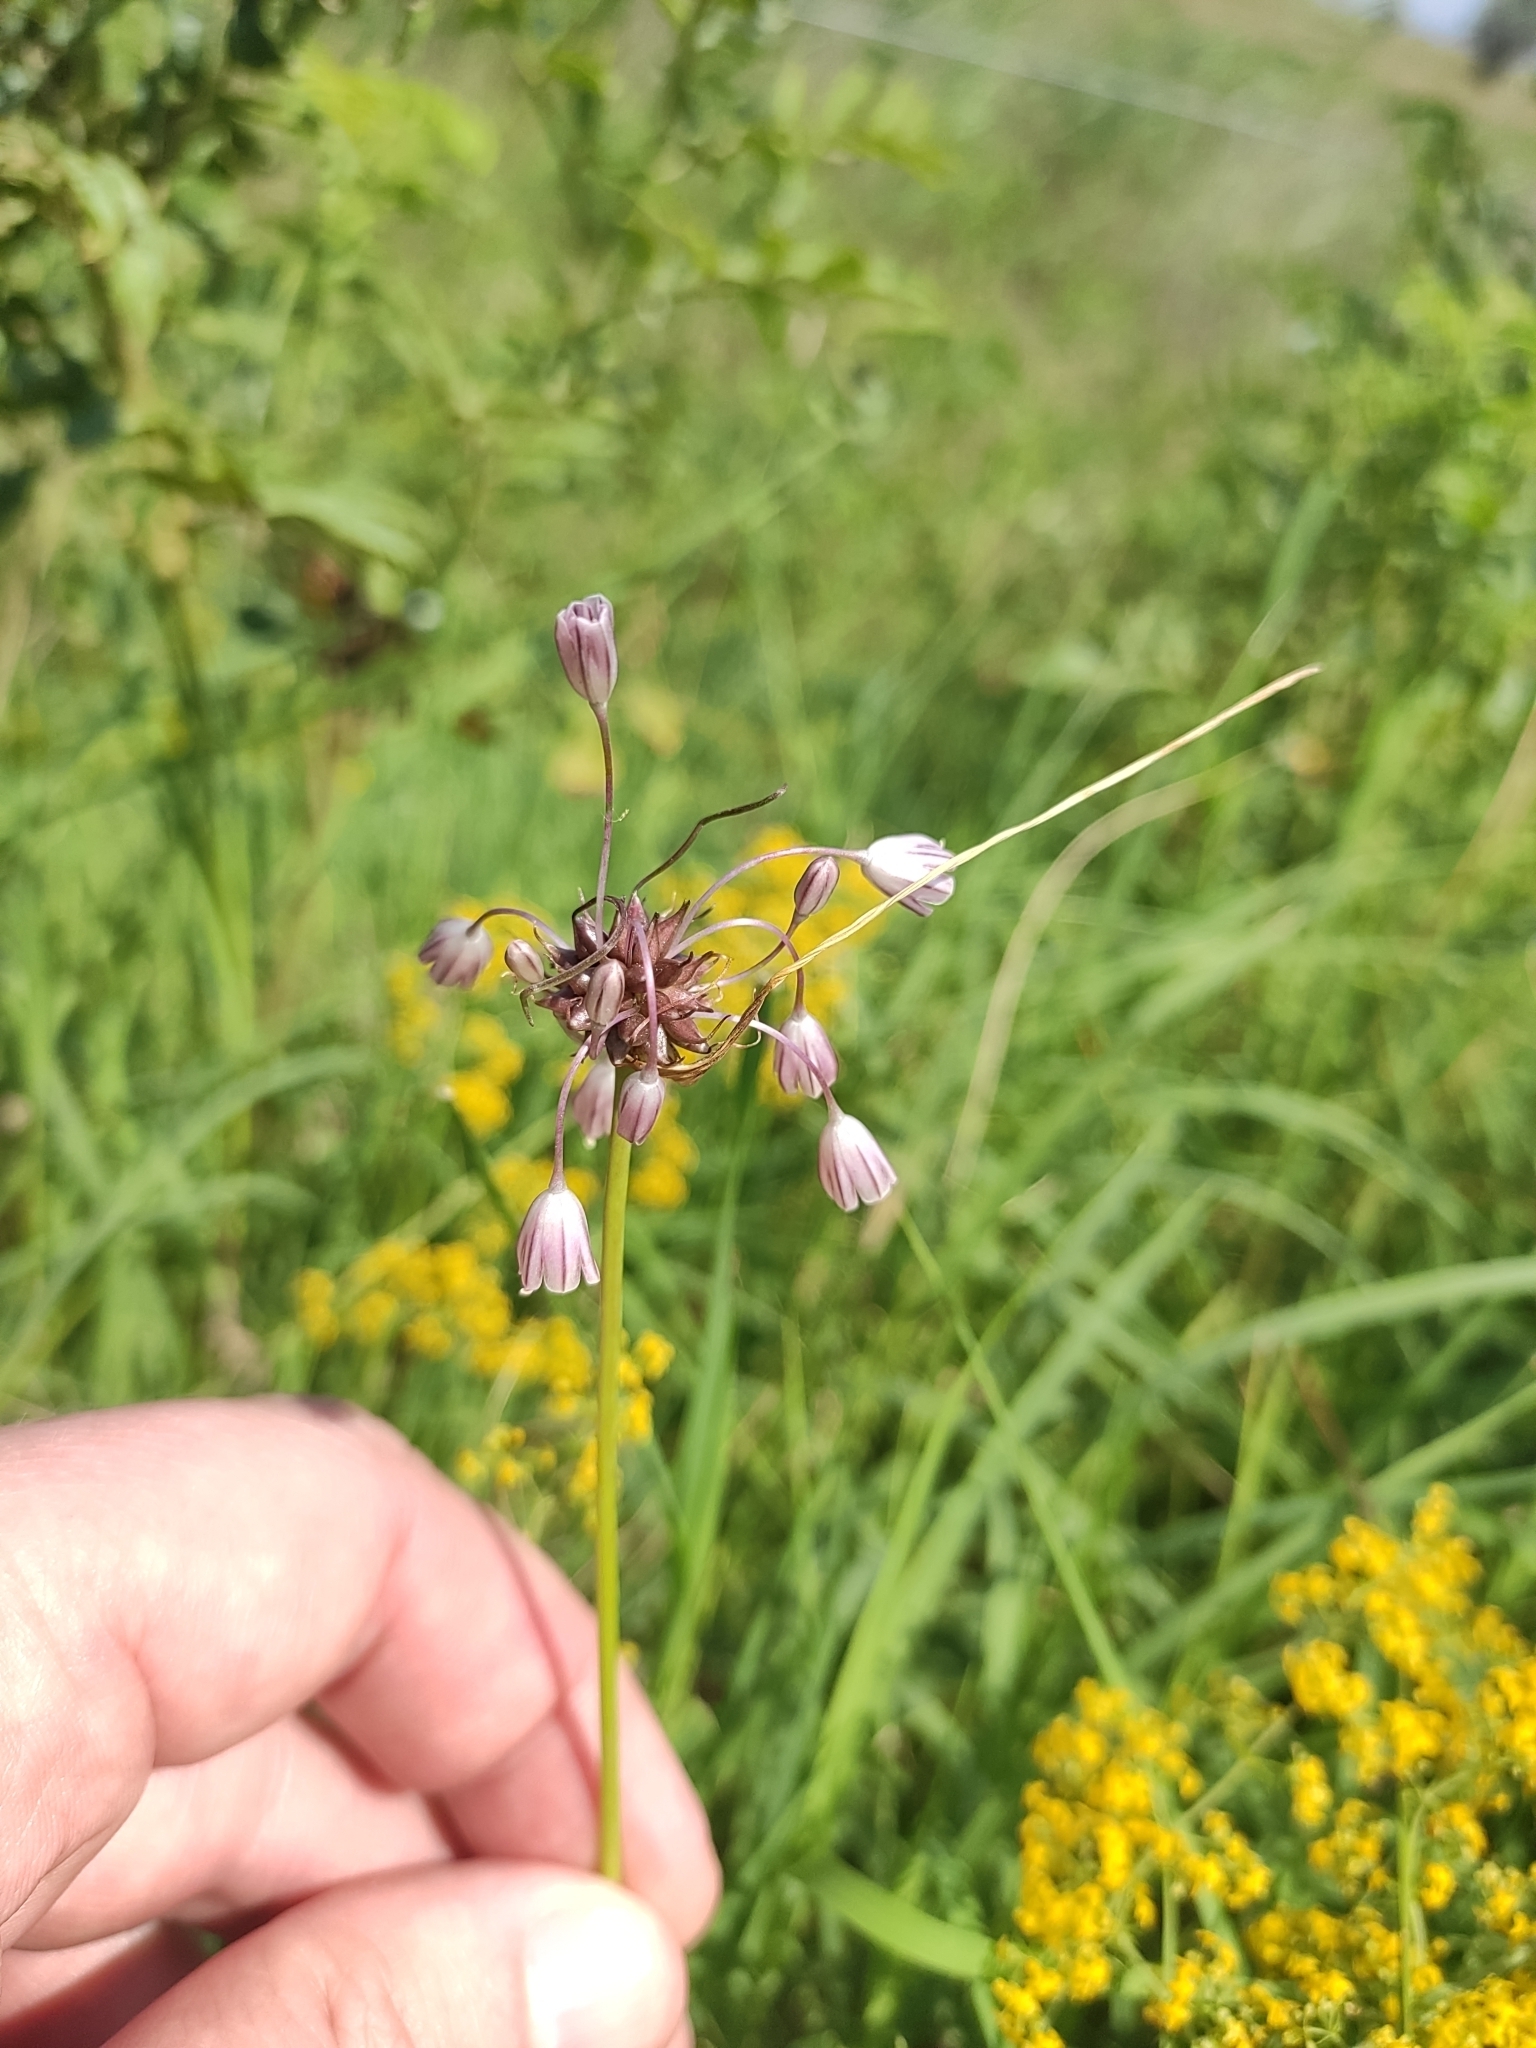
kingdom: Plantae
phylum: Tracheophyta
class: Liliopsida
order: Asparagales
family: Amaryllidaceae
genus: Allium
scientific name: Allium oleraceum
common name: Field garlic
